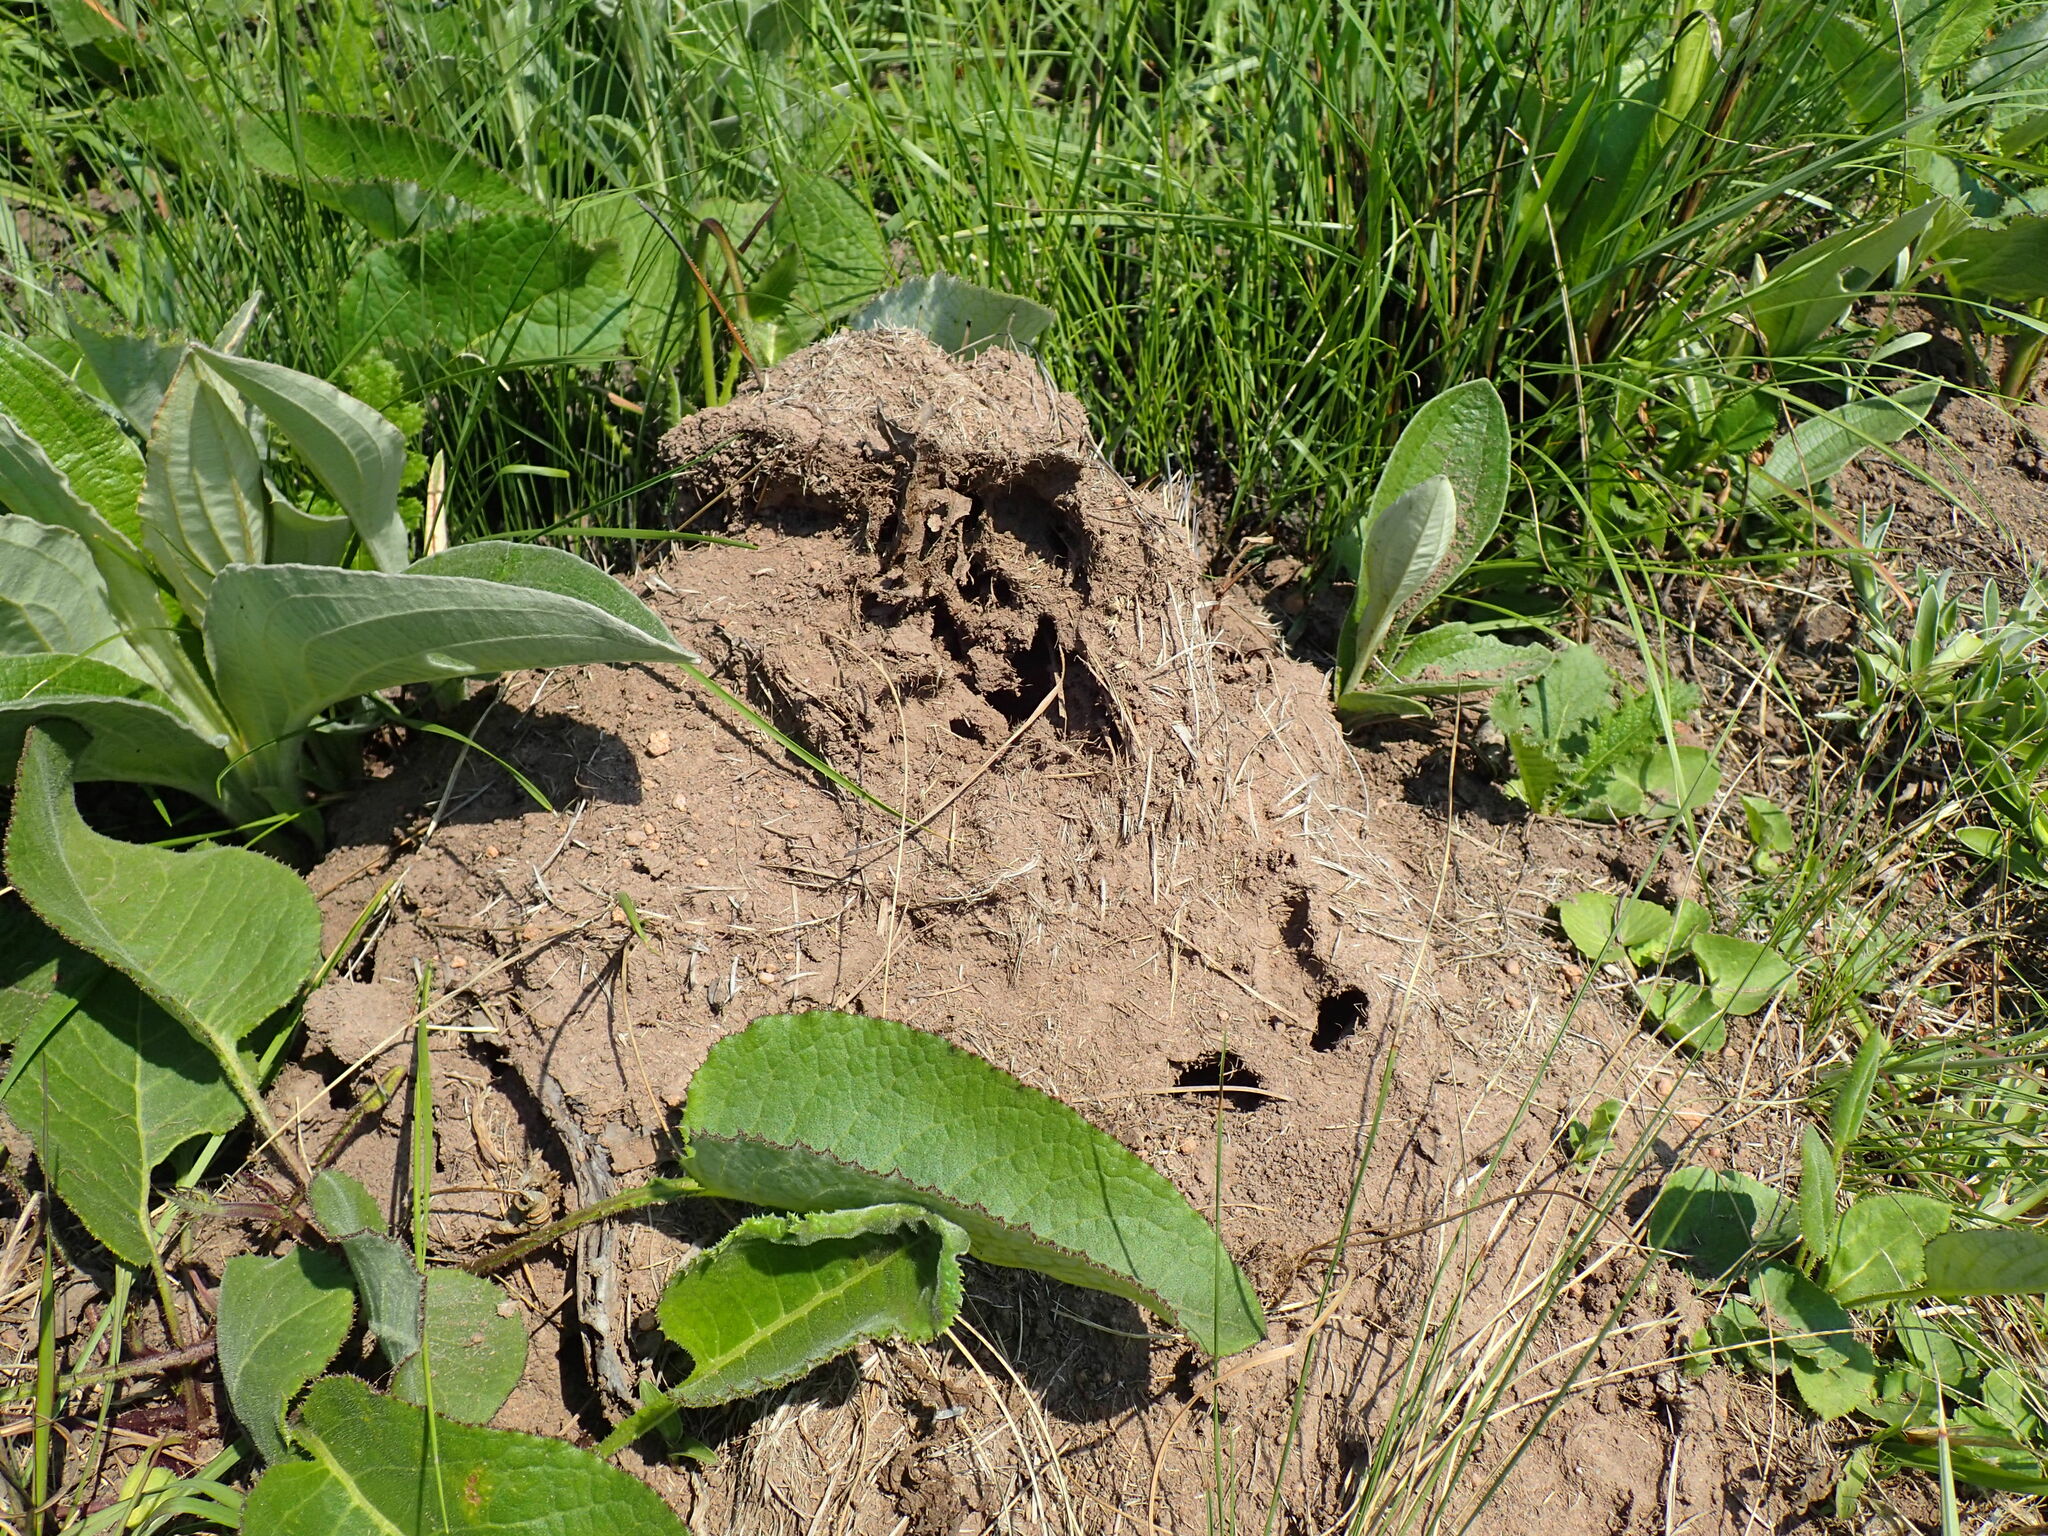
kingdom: Animalia
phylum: Arthropoda
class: Insecta
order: Hymenoptera
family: Formicidae
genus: Polyrhachis
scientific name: Polyrhachis schistacea
